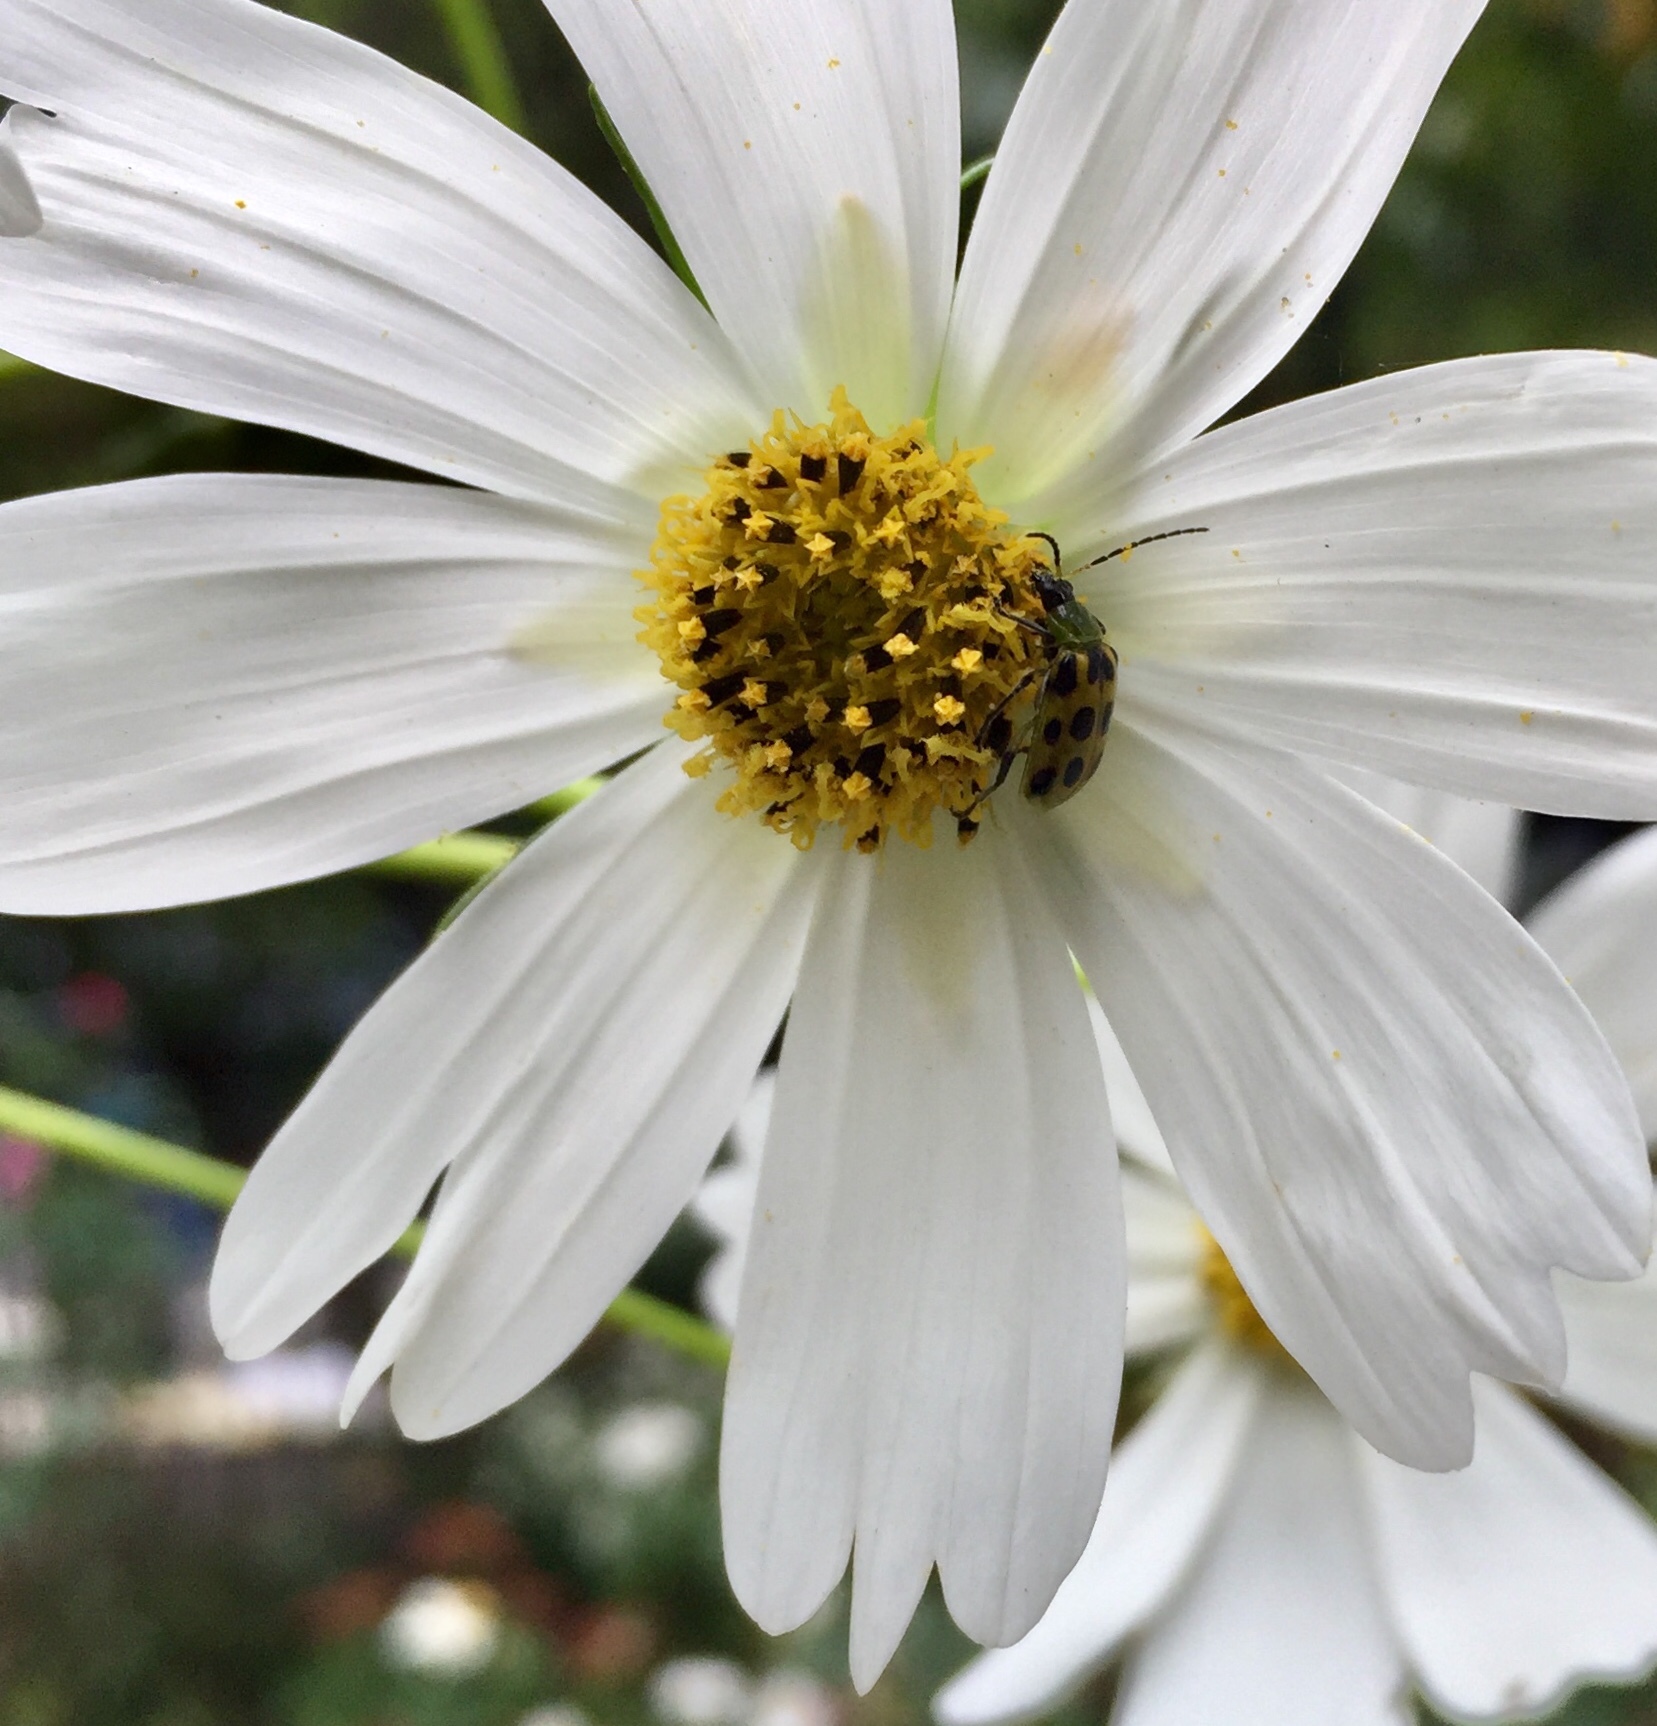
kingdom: Animalia
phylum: Arthropoda
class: Insecta
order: Coleoptera
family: Chrysomelidae
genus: Diabrotica
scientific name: Diabrotica undecimpunctata
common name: Spotted cucumber beetle
